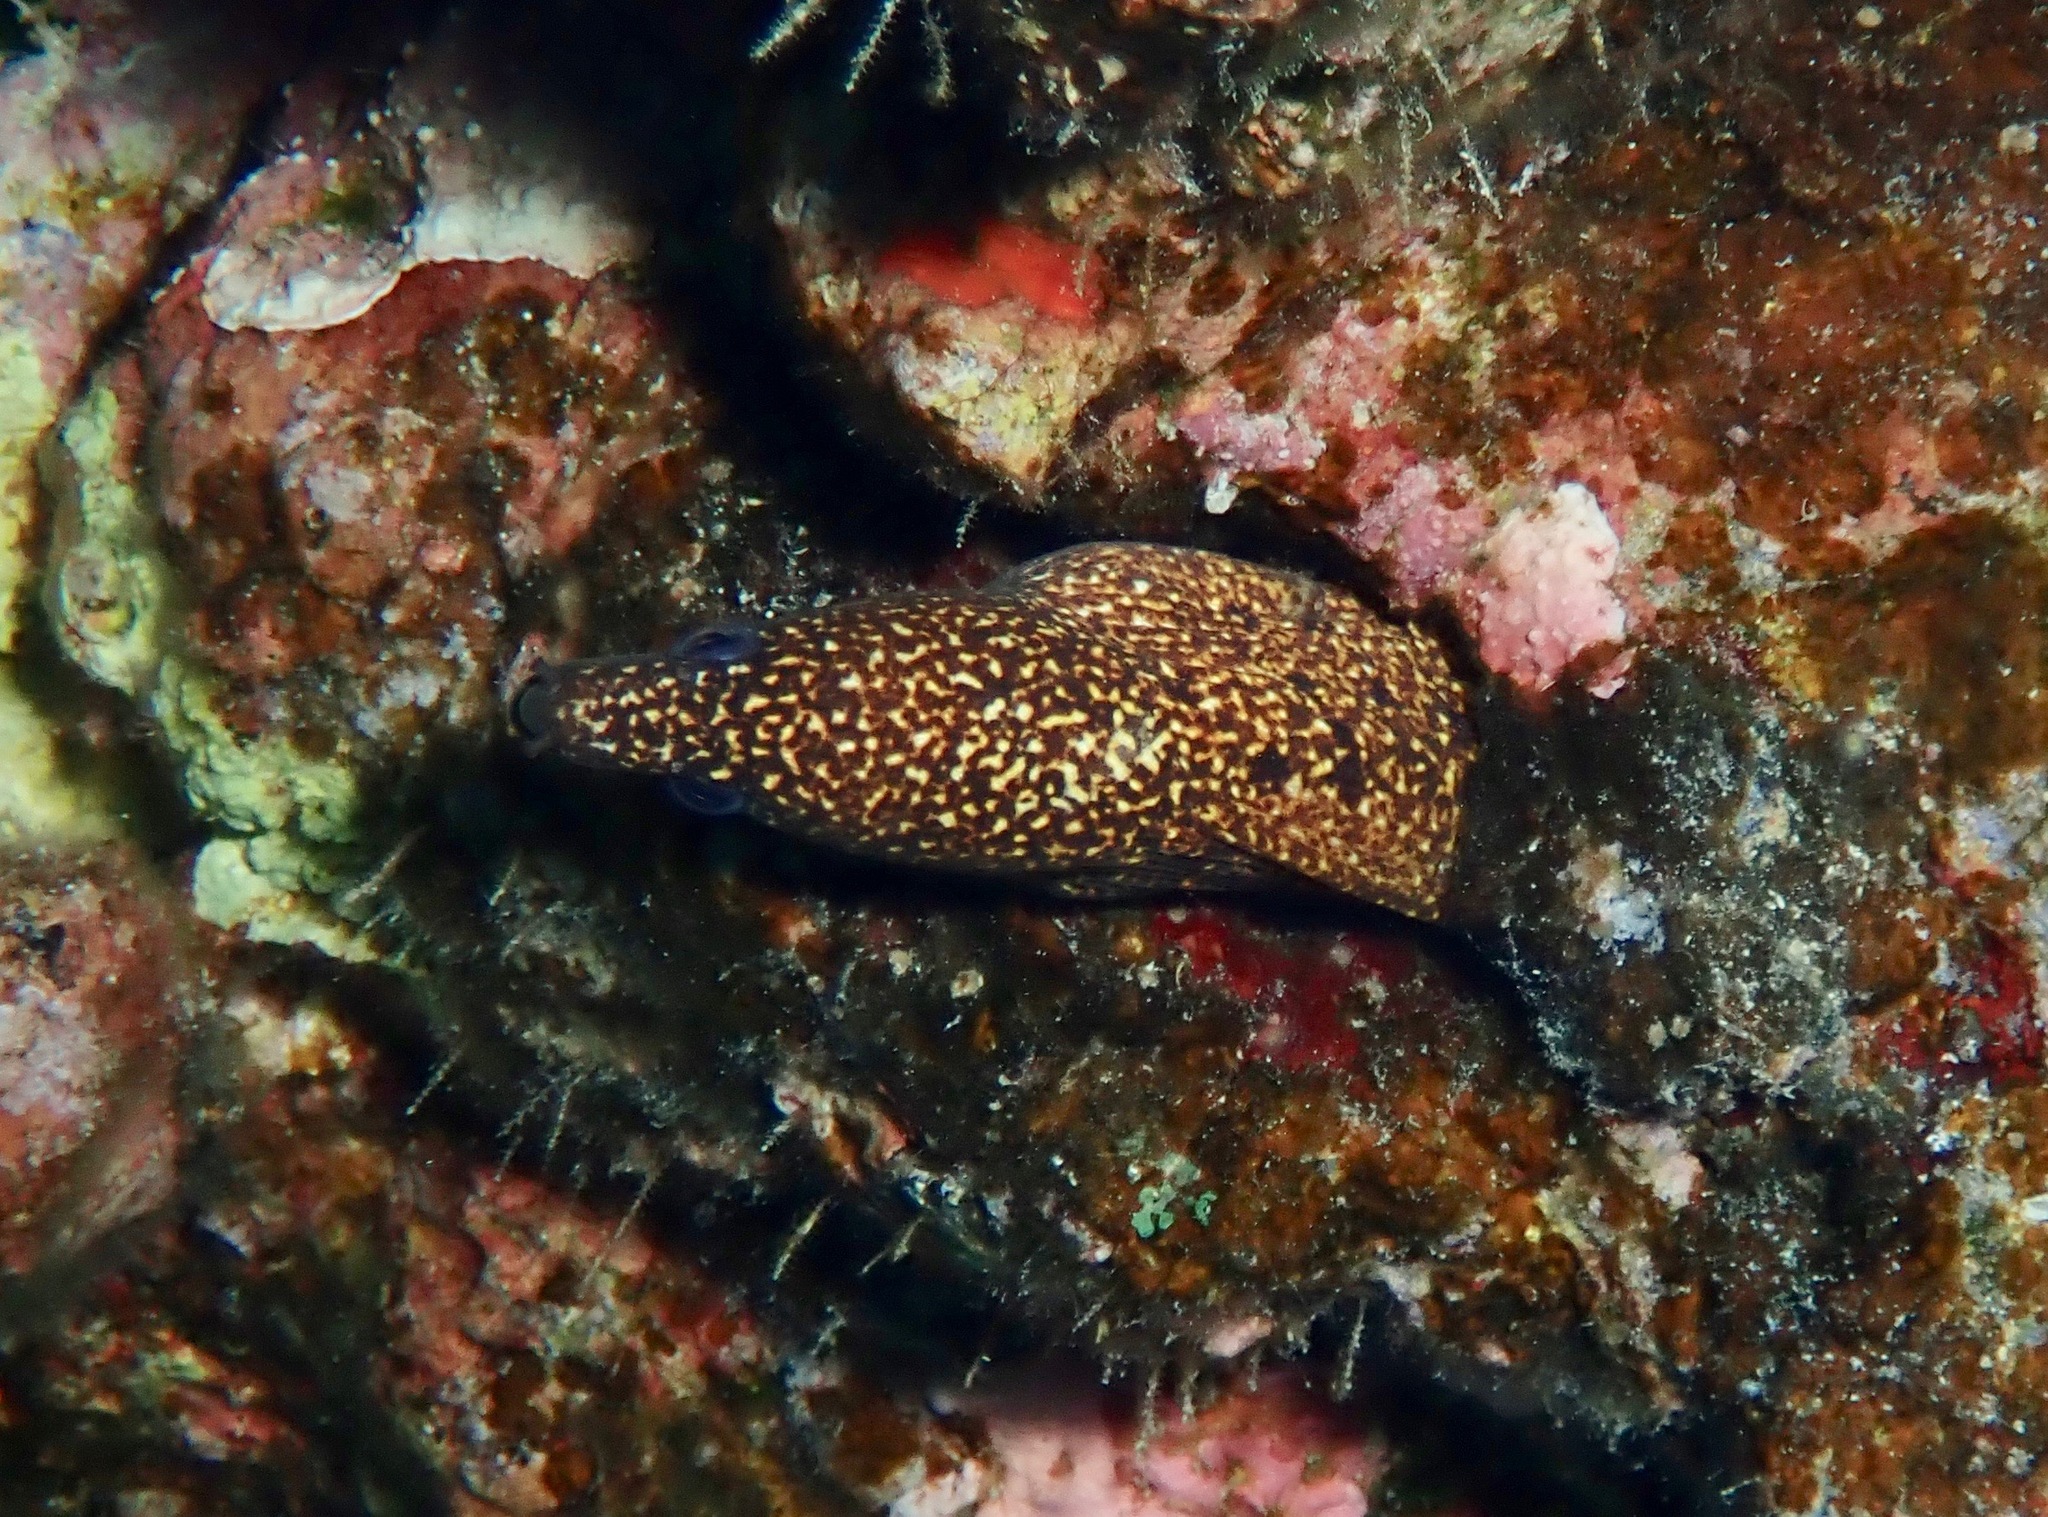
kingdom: Animalia
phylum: Chordata
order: Anguilliformes
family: Muraenidae
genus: Gymnothorax
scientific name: Gymnothorax eurostus
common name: Stout moray
